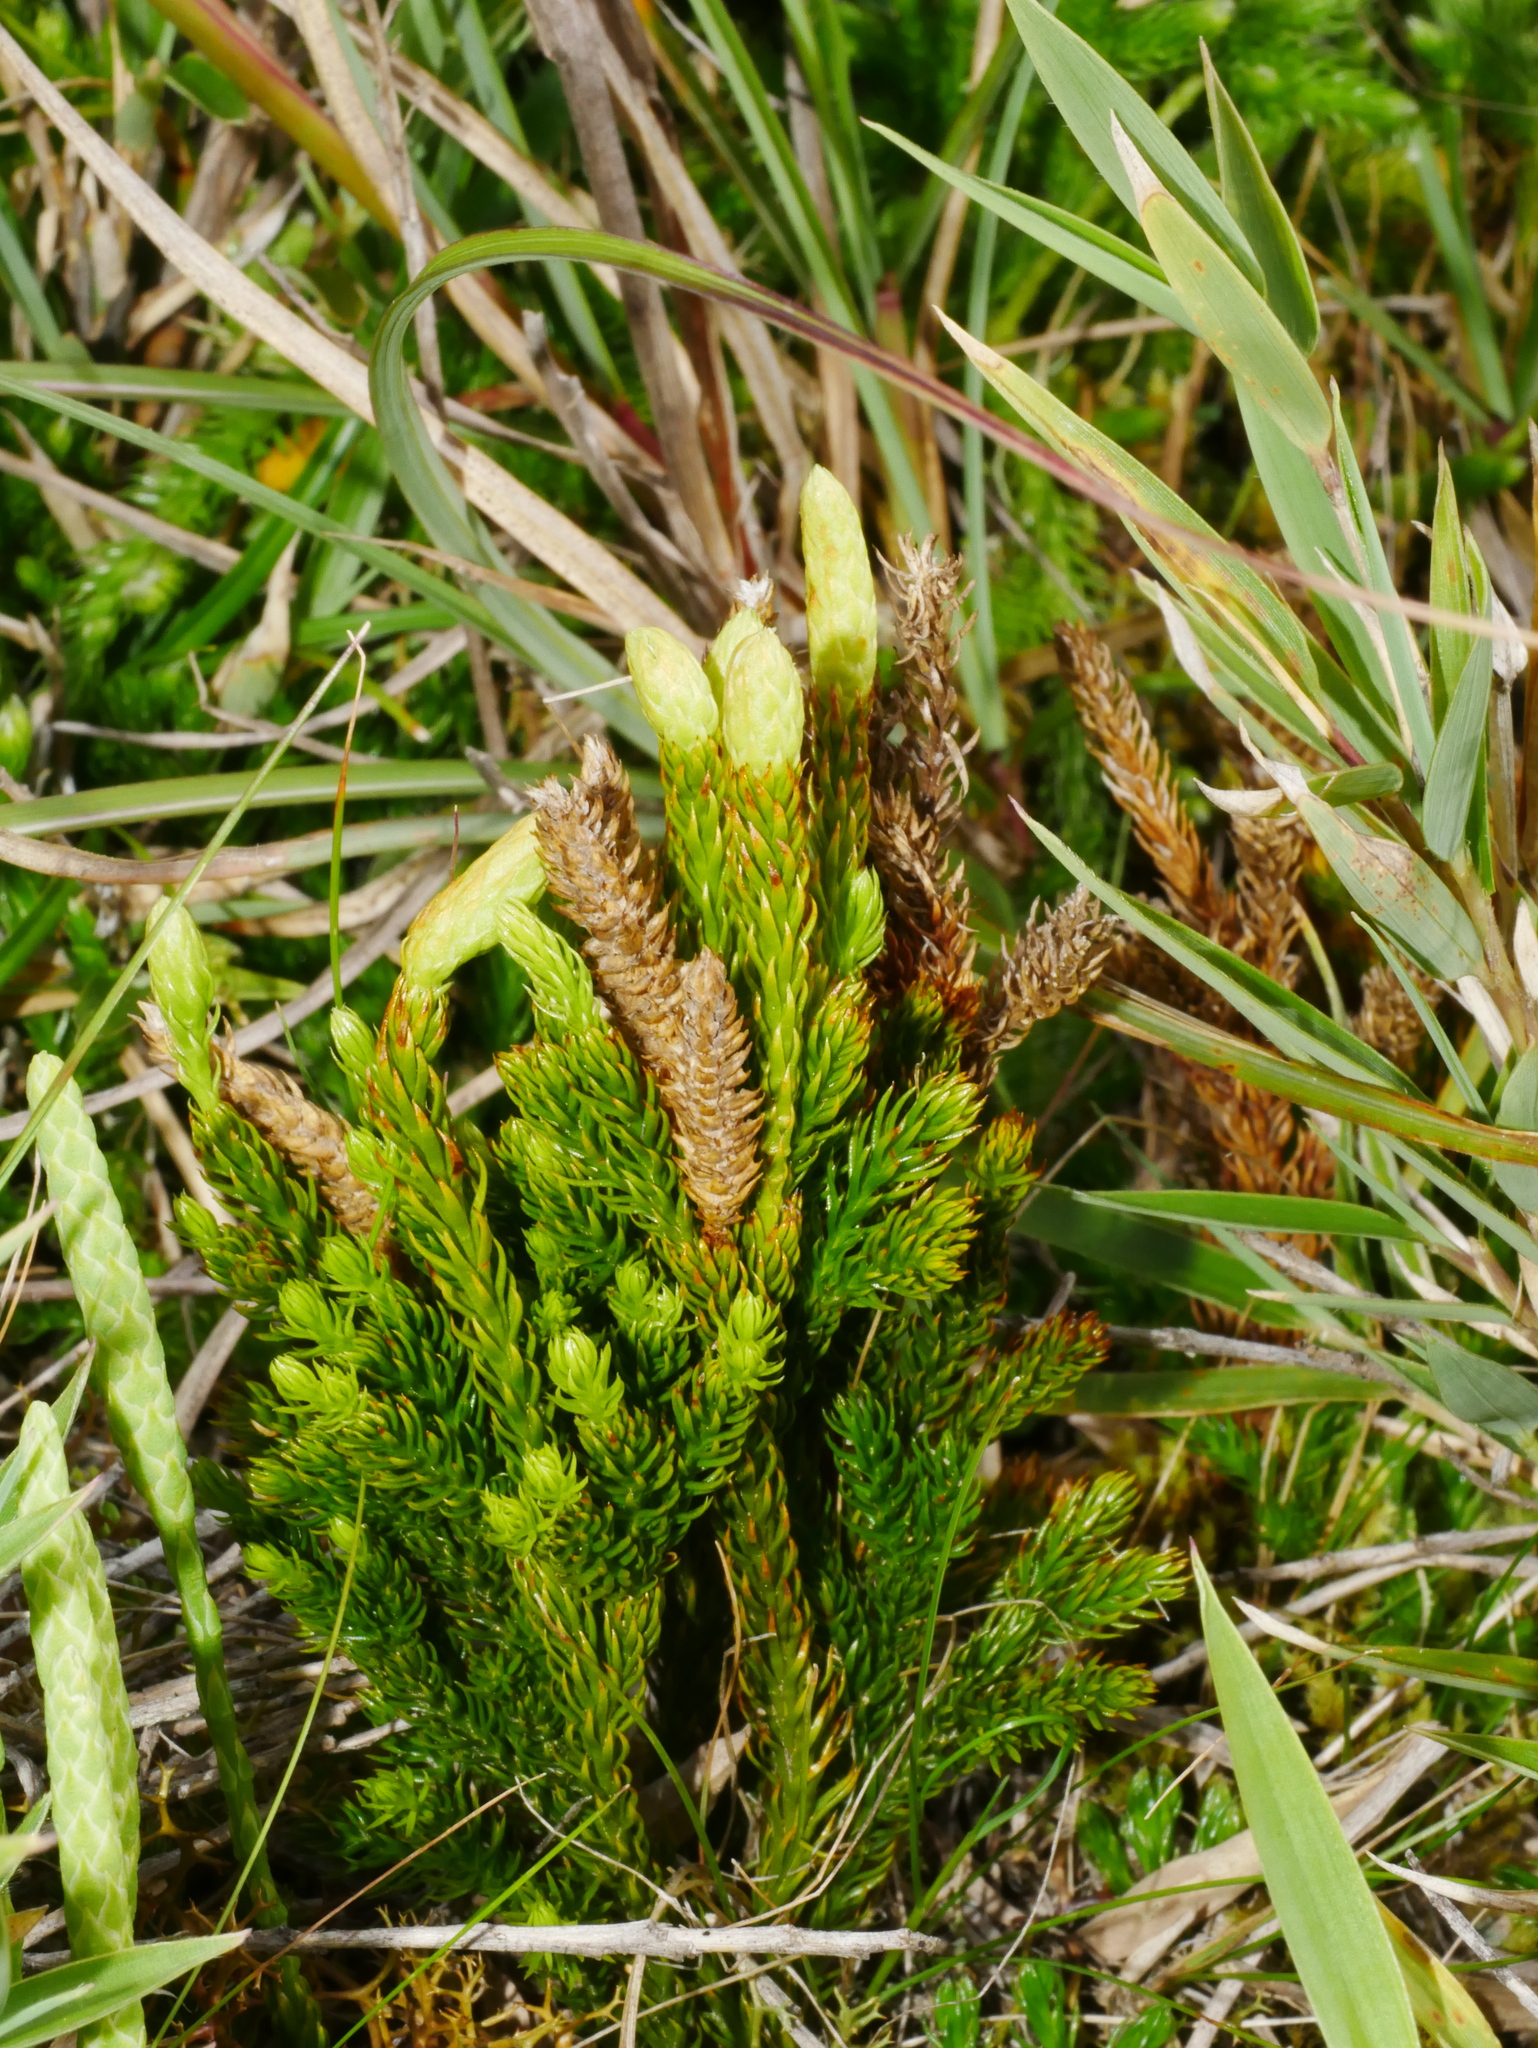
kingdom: Plantae
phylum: Tracheophyta
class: Lycopodiopsida
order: Lycopodiales
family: Lycopodiaceae
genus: Dendrolycopodium
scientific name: Dendrolycopodium juniperoideum
